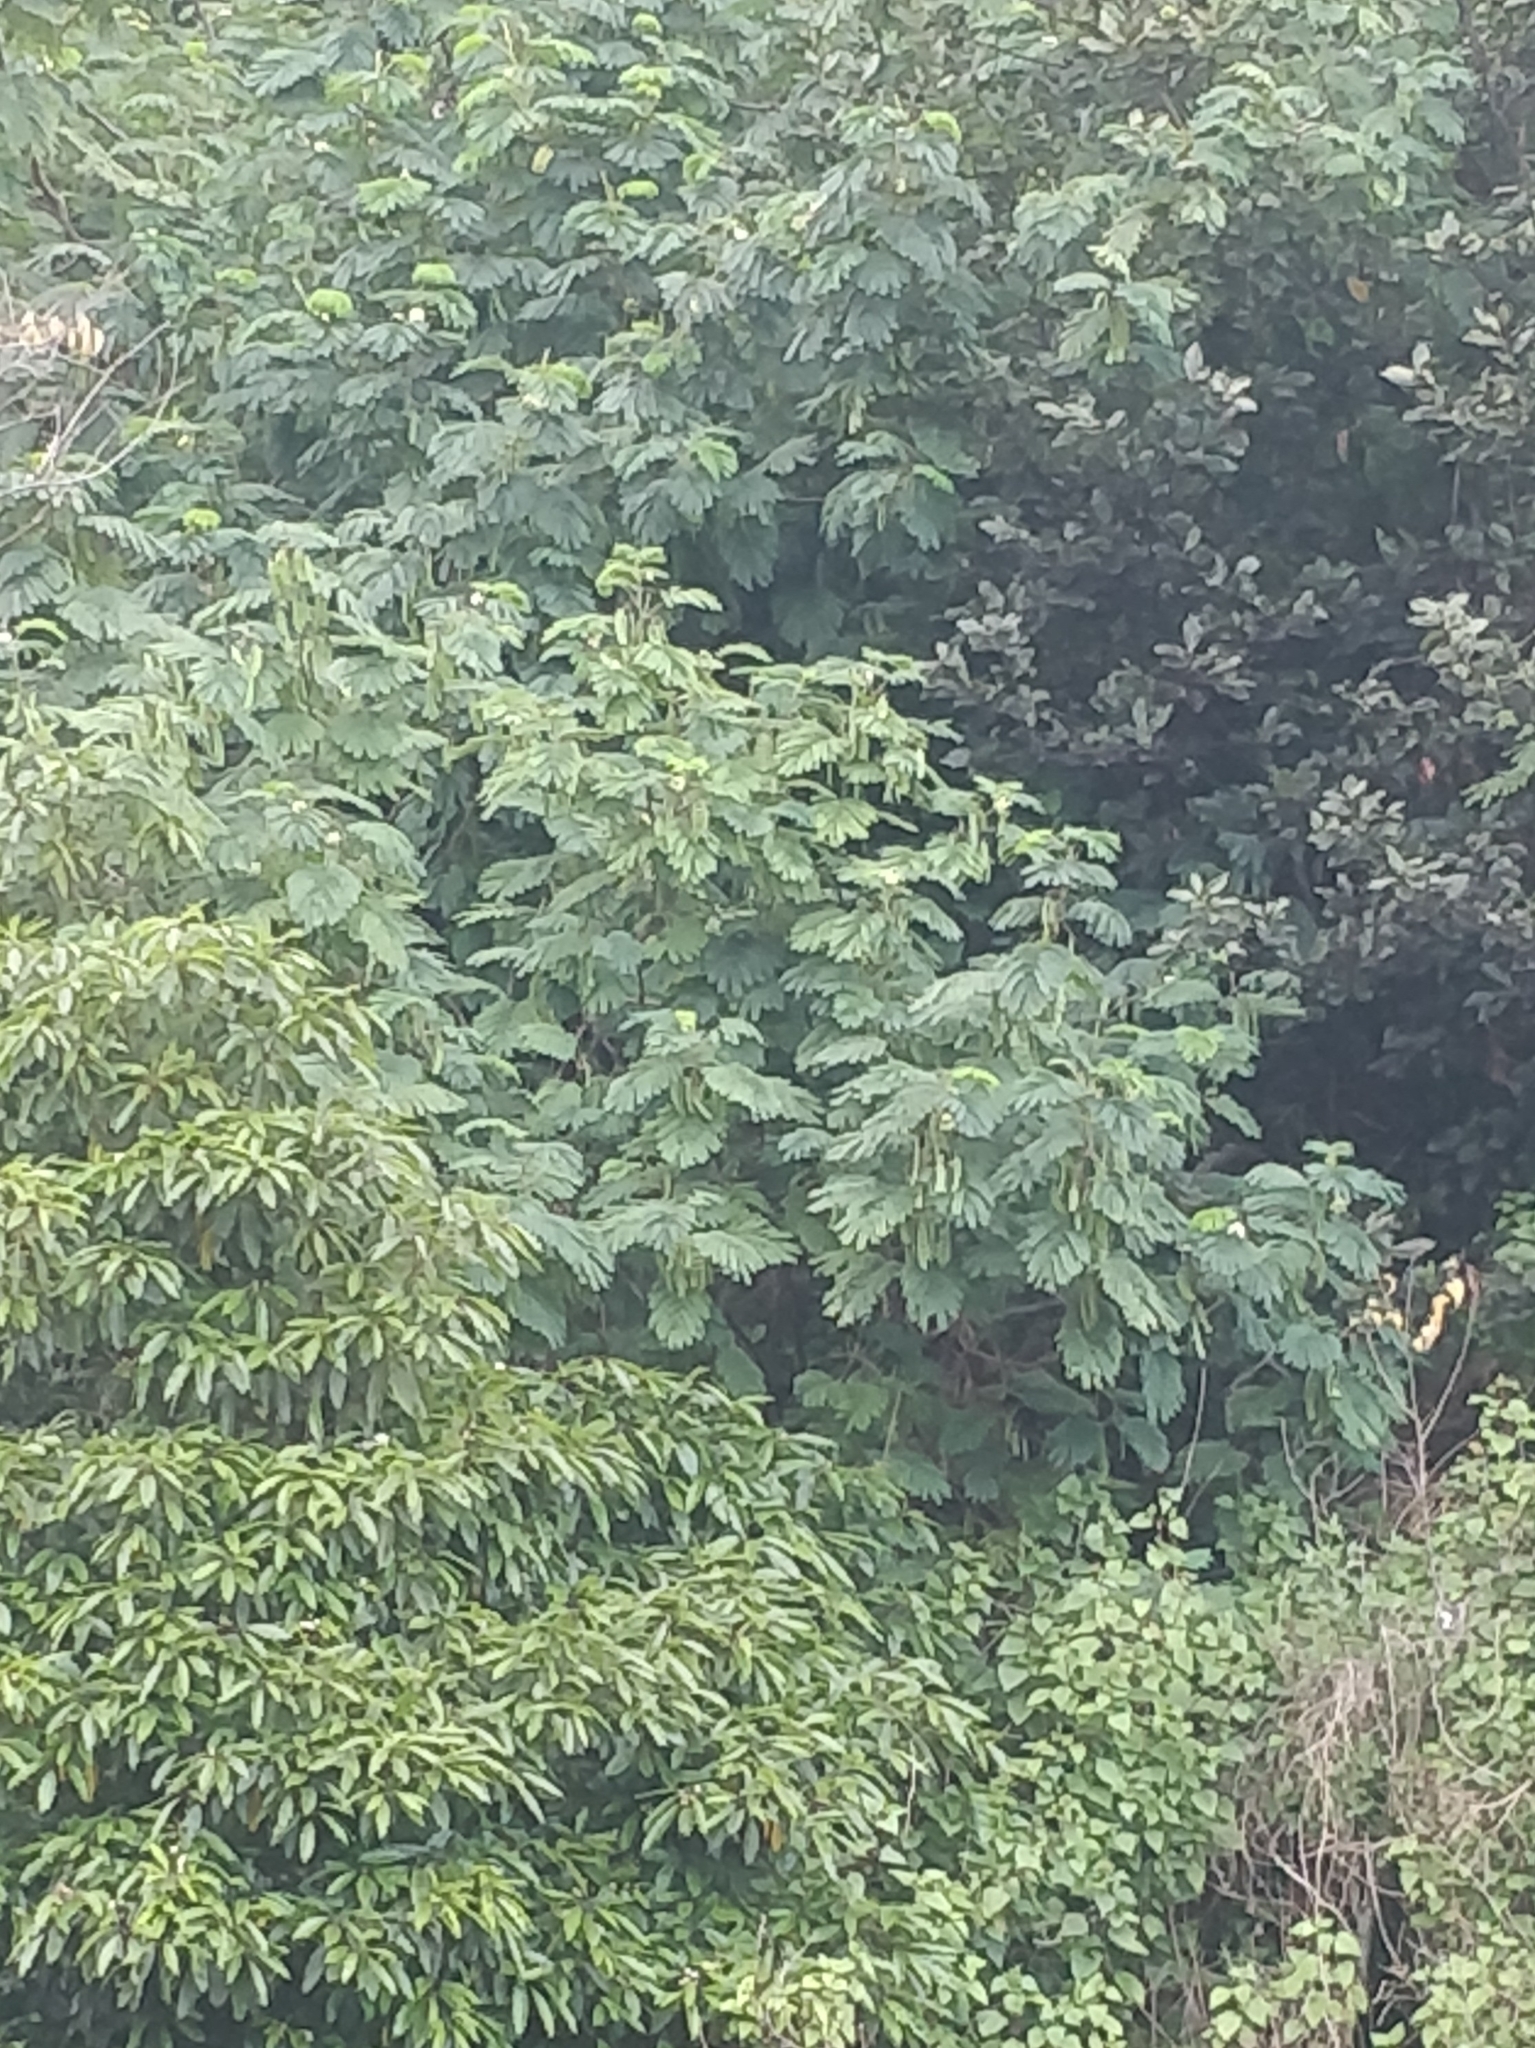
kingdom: Plantae
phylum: Tracheophyta
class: Magnoliopsida
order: Fabales
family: Fabaceae
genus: Paraserianthes
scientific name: Paraserianthes lophantha
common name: Plume albizia
